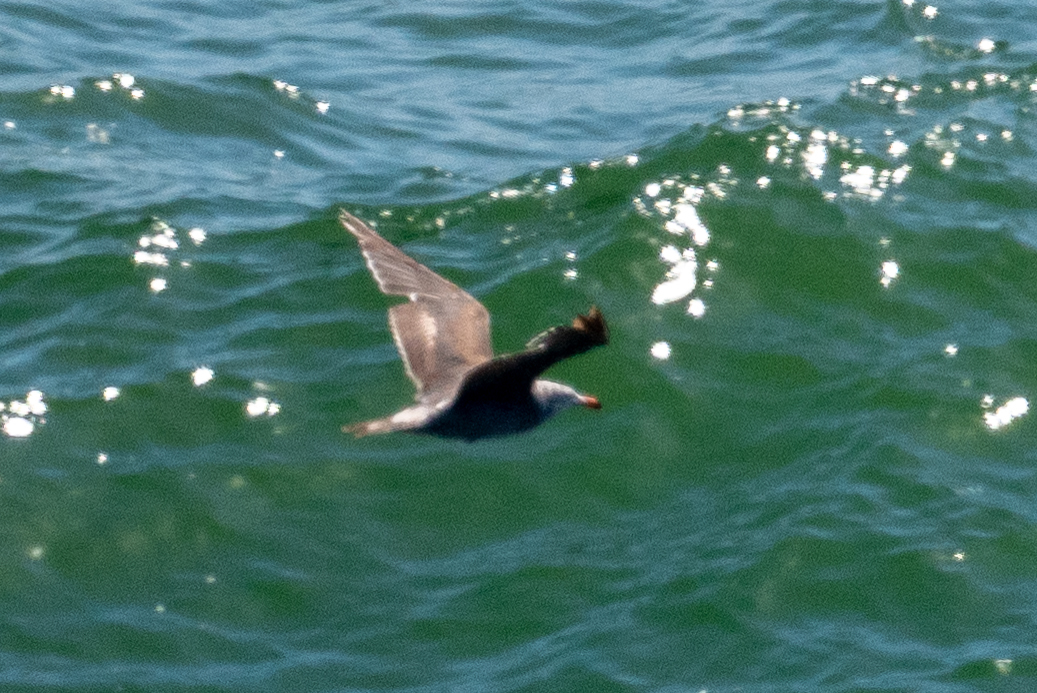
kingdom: Animalia
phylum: Chordata
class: Aves
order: Charadriiformes
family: Laridae
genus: Larus
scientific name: Larus heermanni
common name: Heermann's gull
